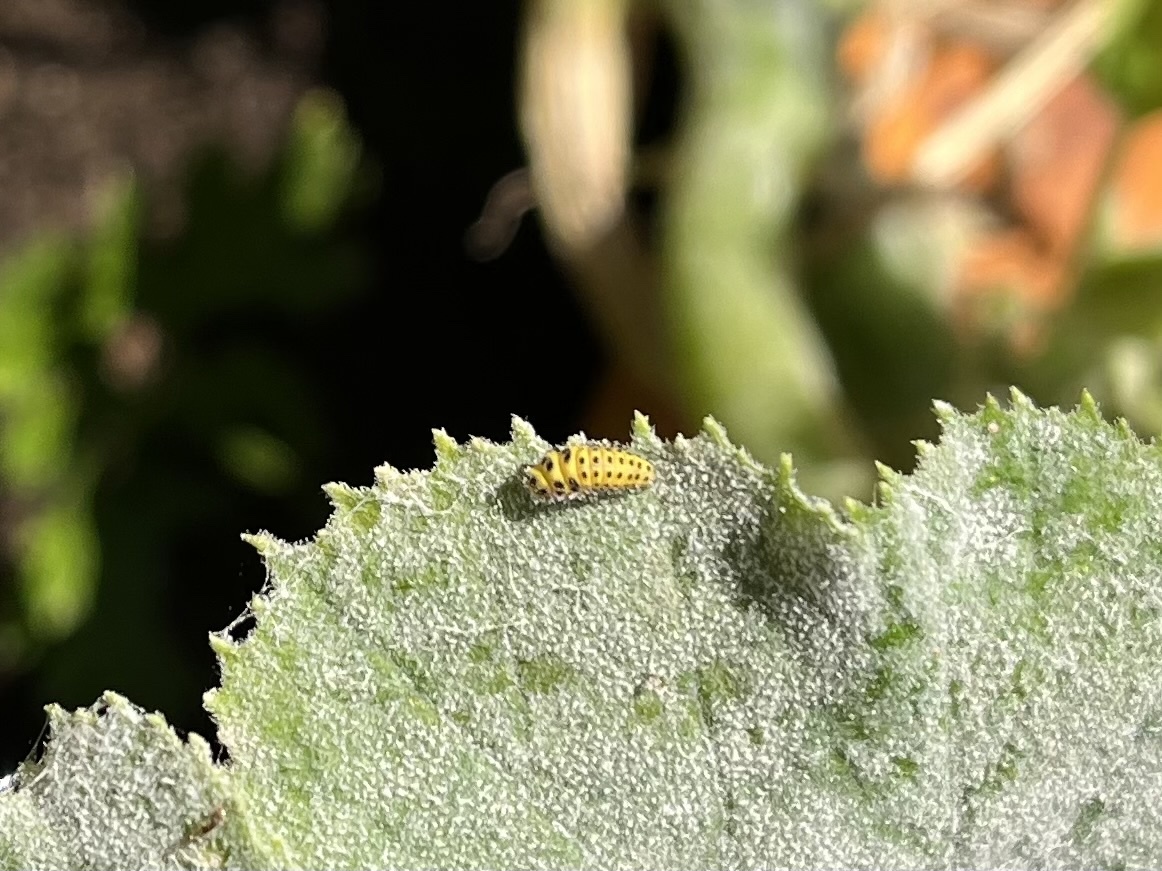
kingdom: Animalia
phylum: Arthropoda
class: Insecta
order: Coleoptera
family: Coccinellidae
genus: Psyllobora
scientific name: Psyllobora vigintiduopunctata
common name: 22-spot ladybird
